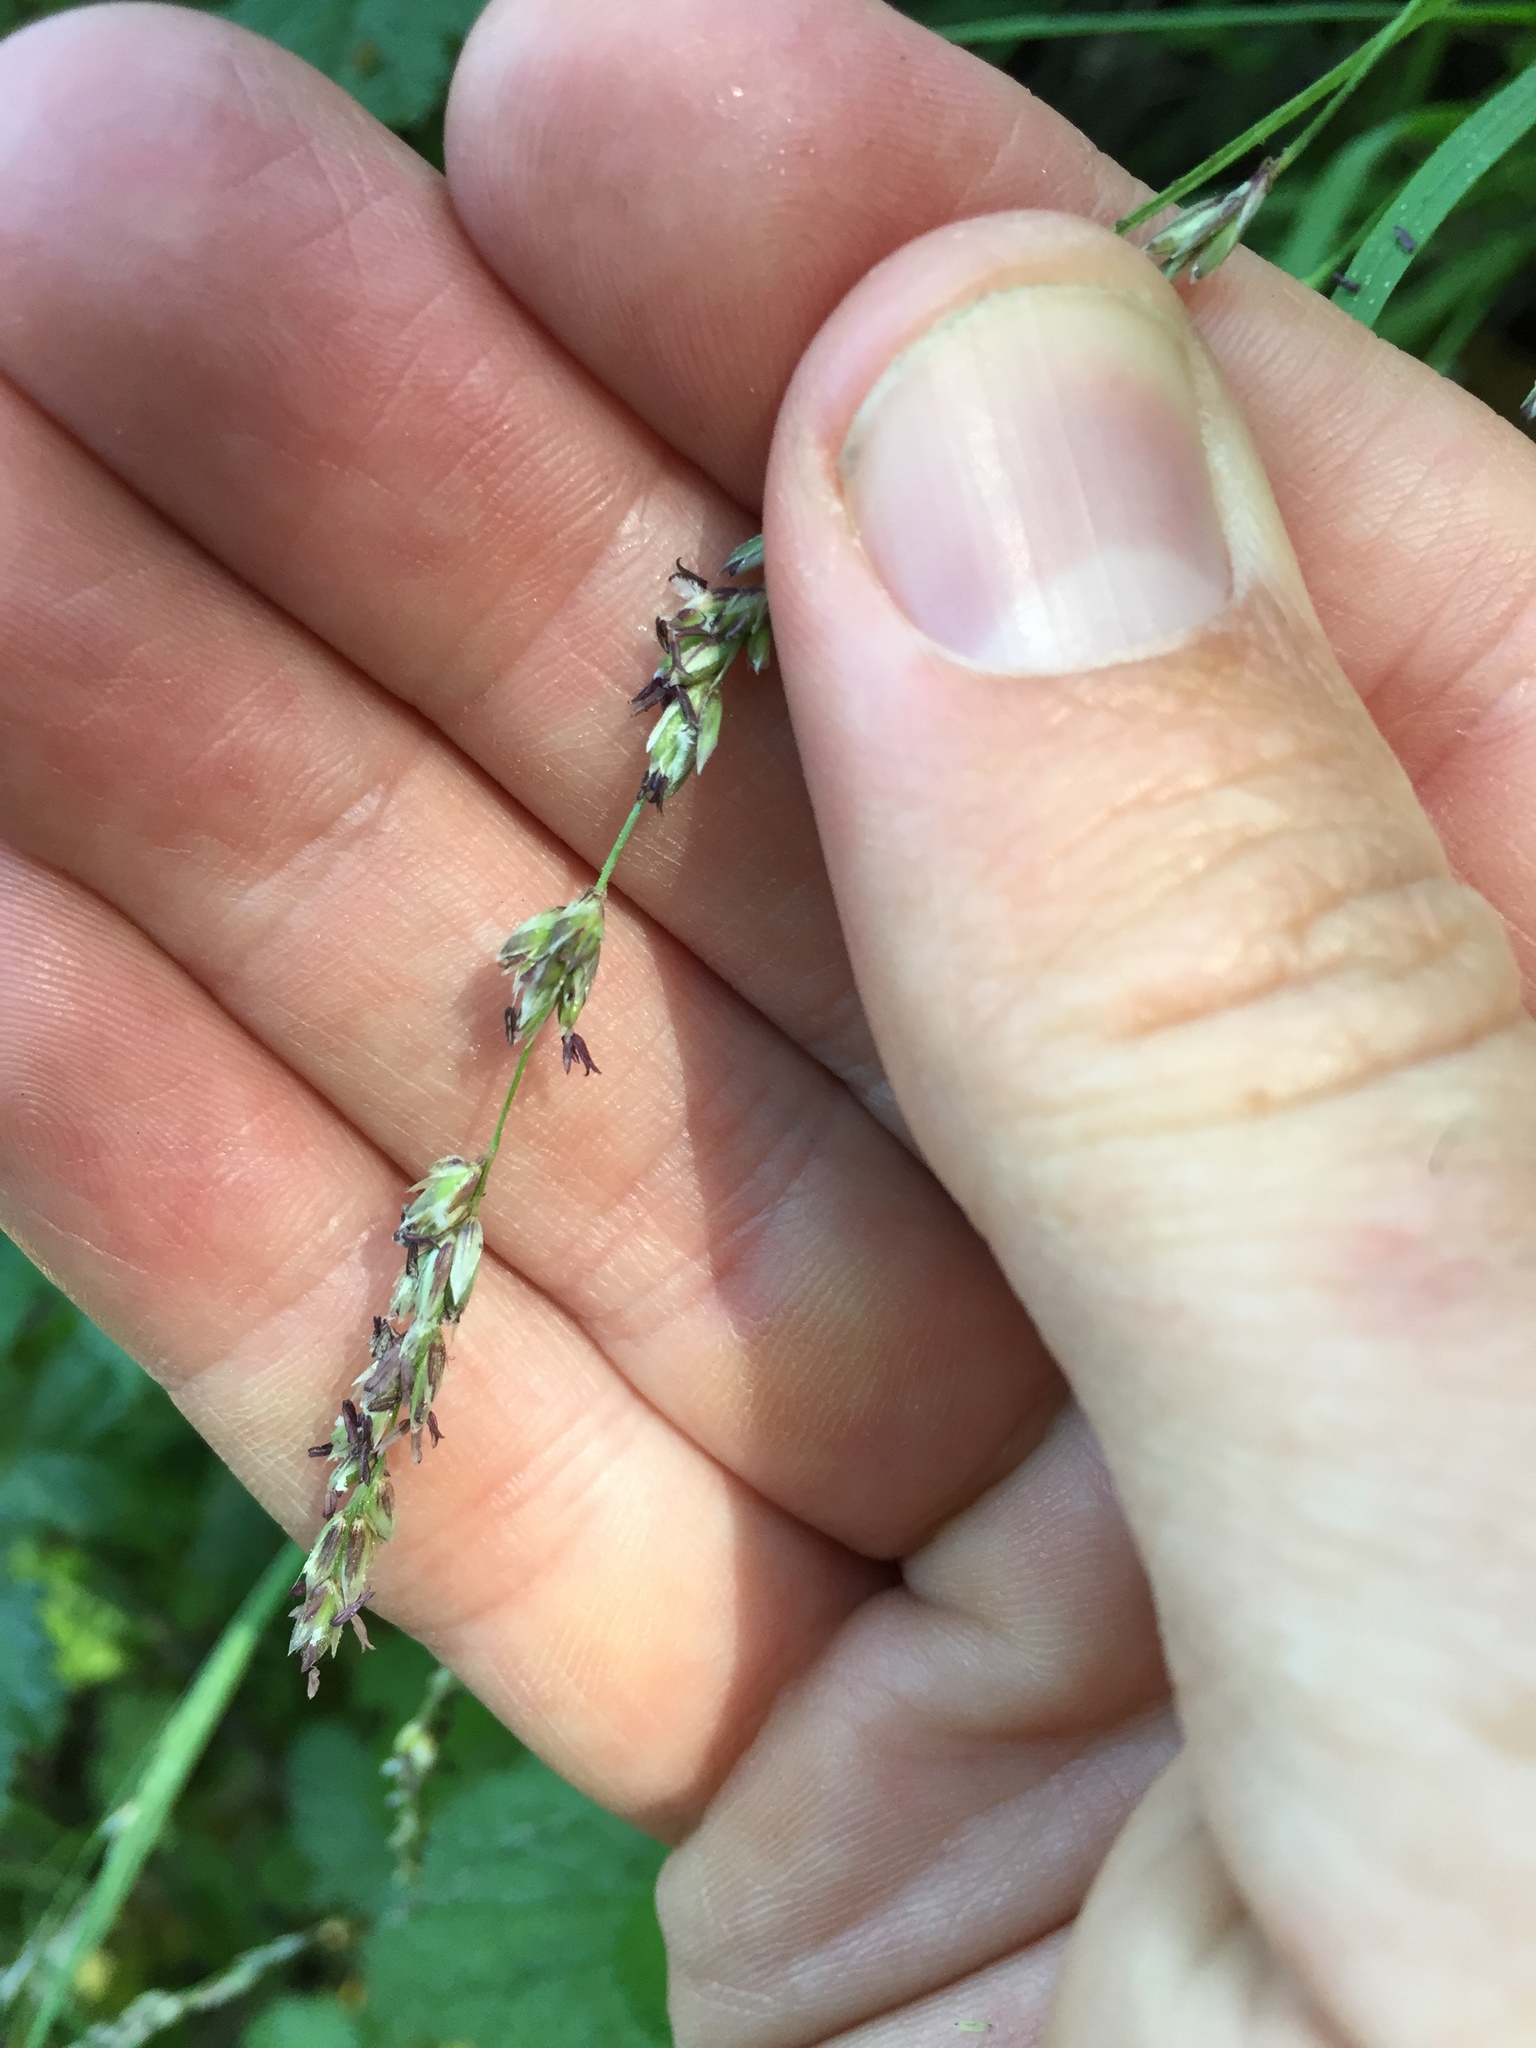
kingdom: Plantae
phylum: Tracheophyta
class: Liliopsida
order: Poales
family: Poaceae
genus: Melica
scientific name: Melica imperfecta
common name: California melic
